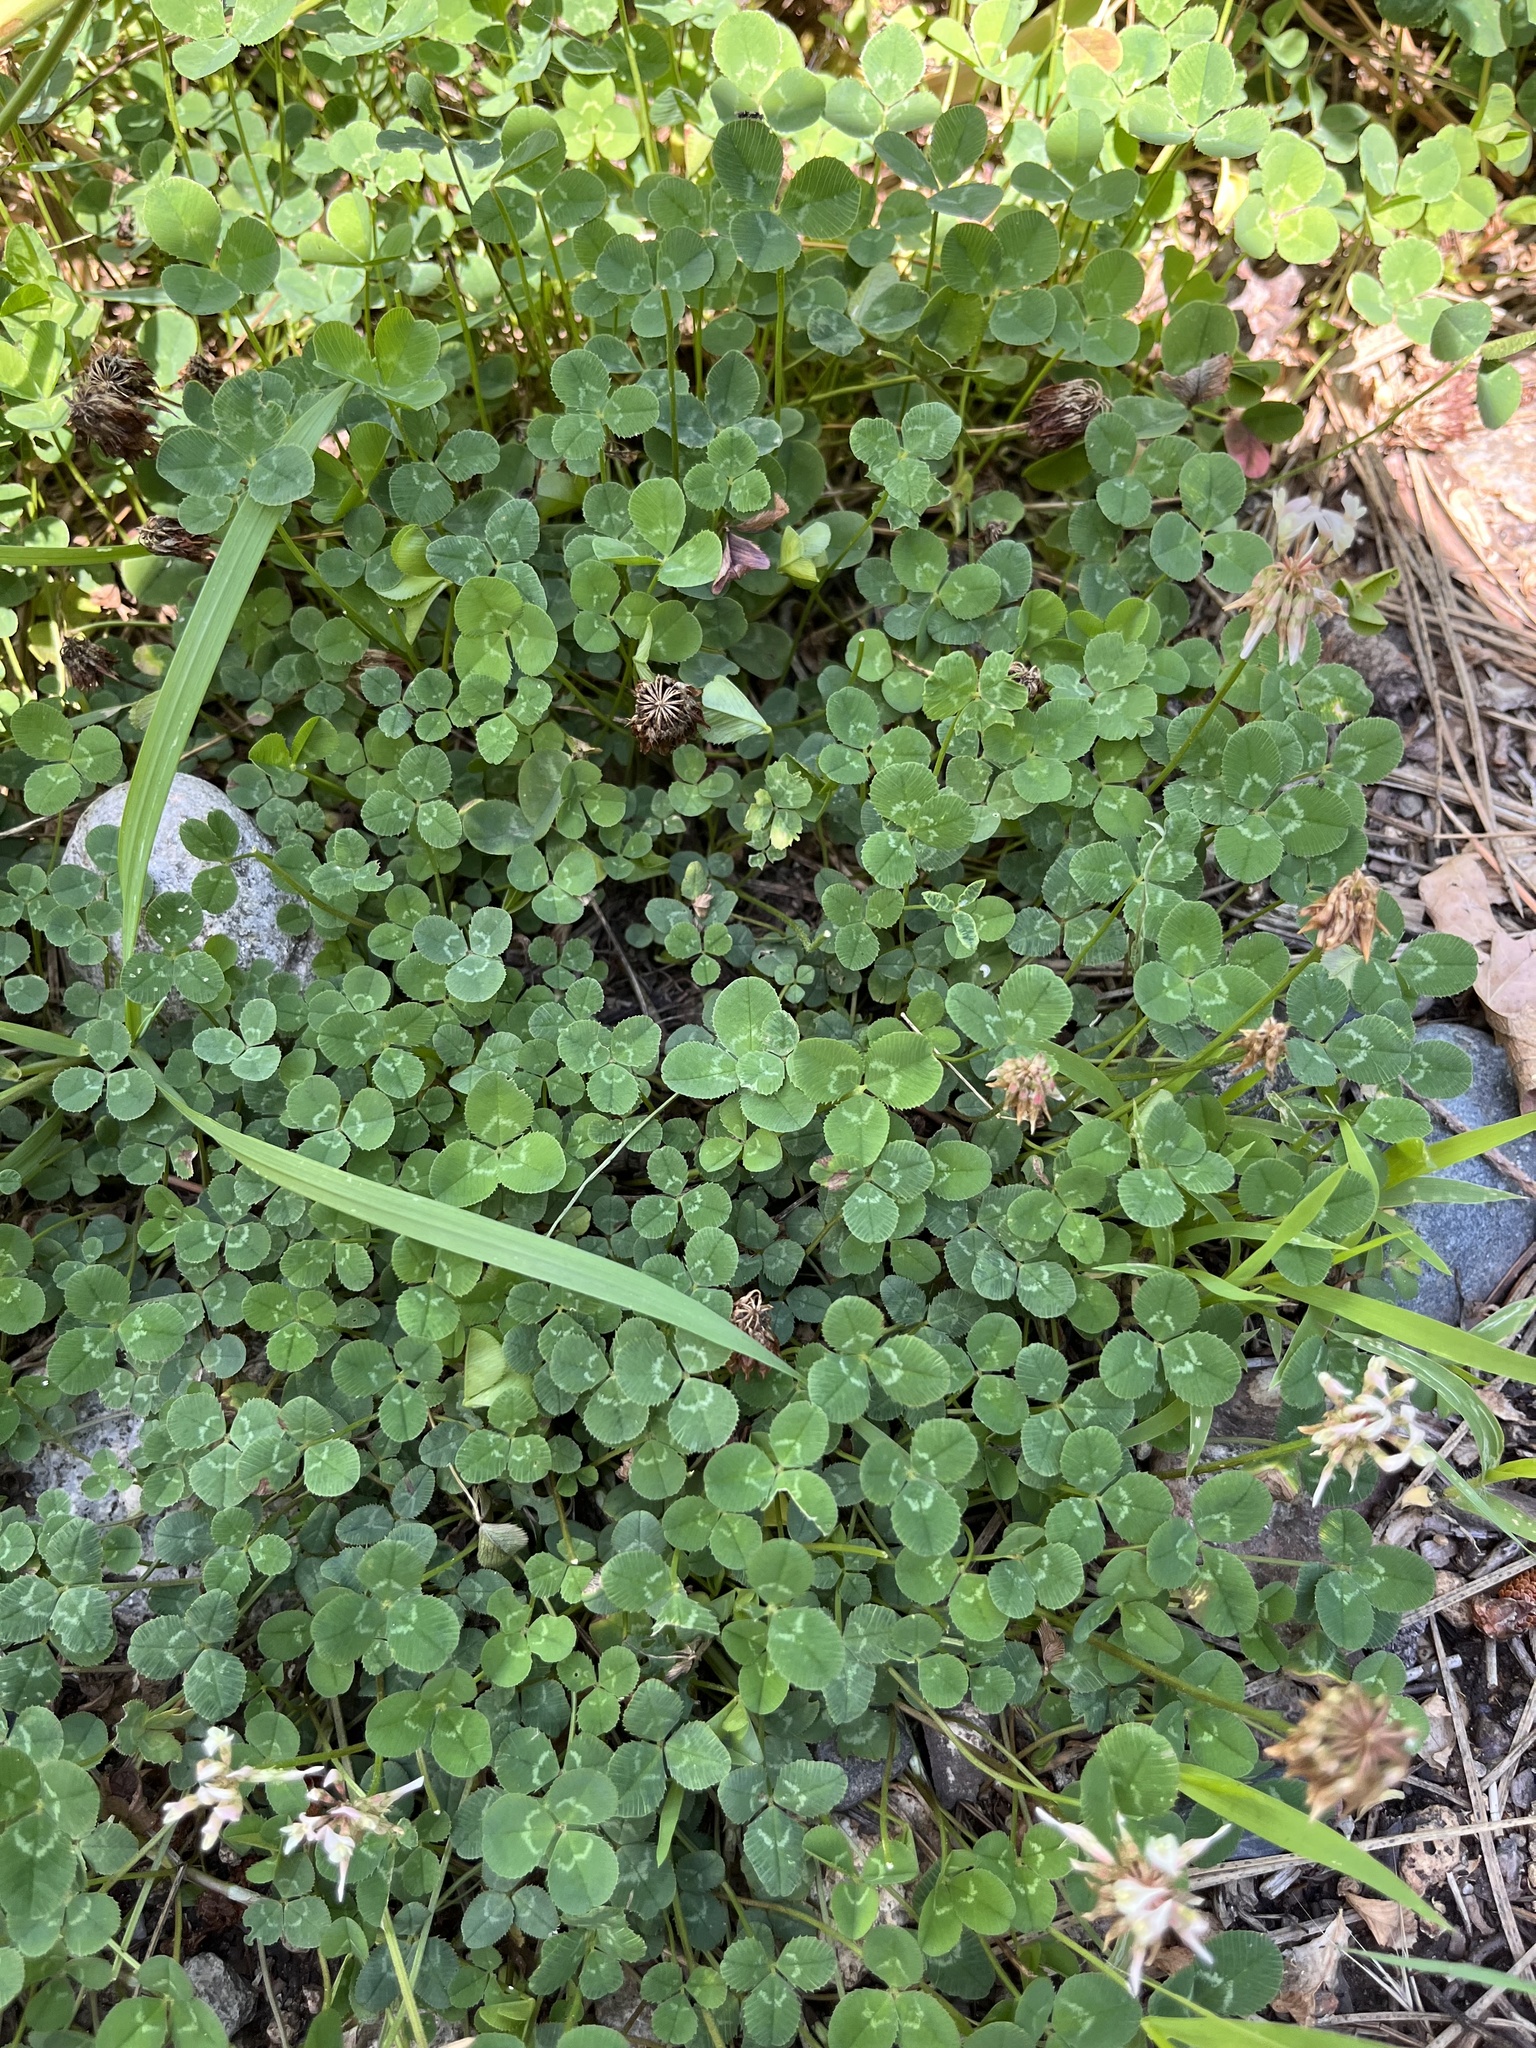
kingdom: Plantae
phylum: Tracheophyta
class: Magnoliopsida
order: Fabales
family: Fabaceae
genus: Trifolium
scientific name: Trifolium repens
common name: White clover
